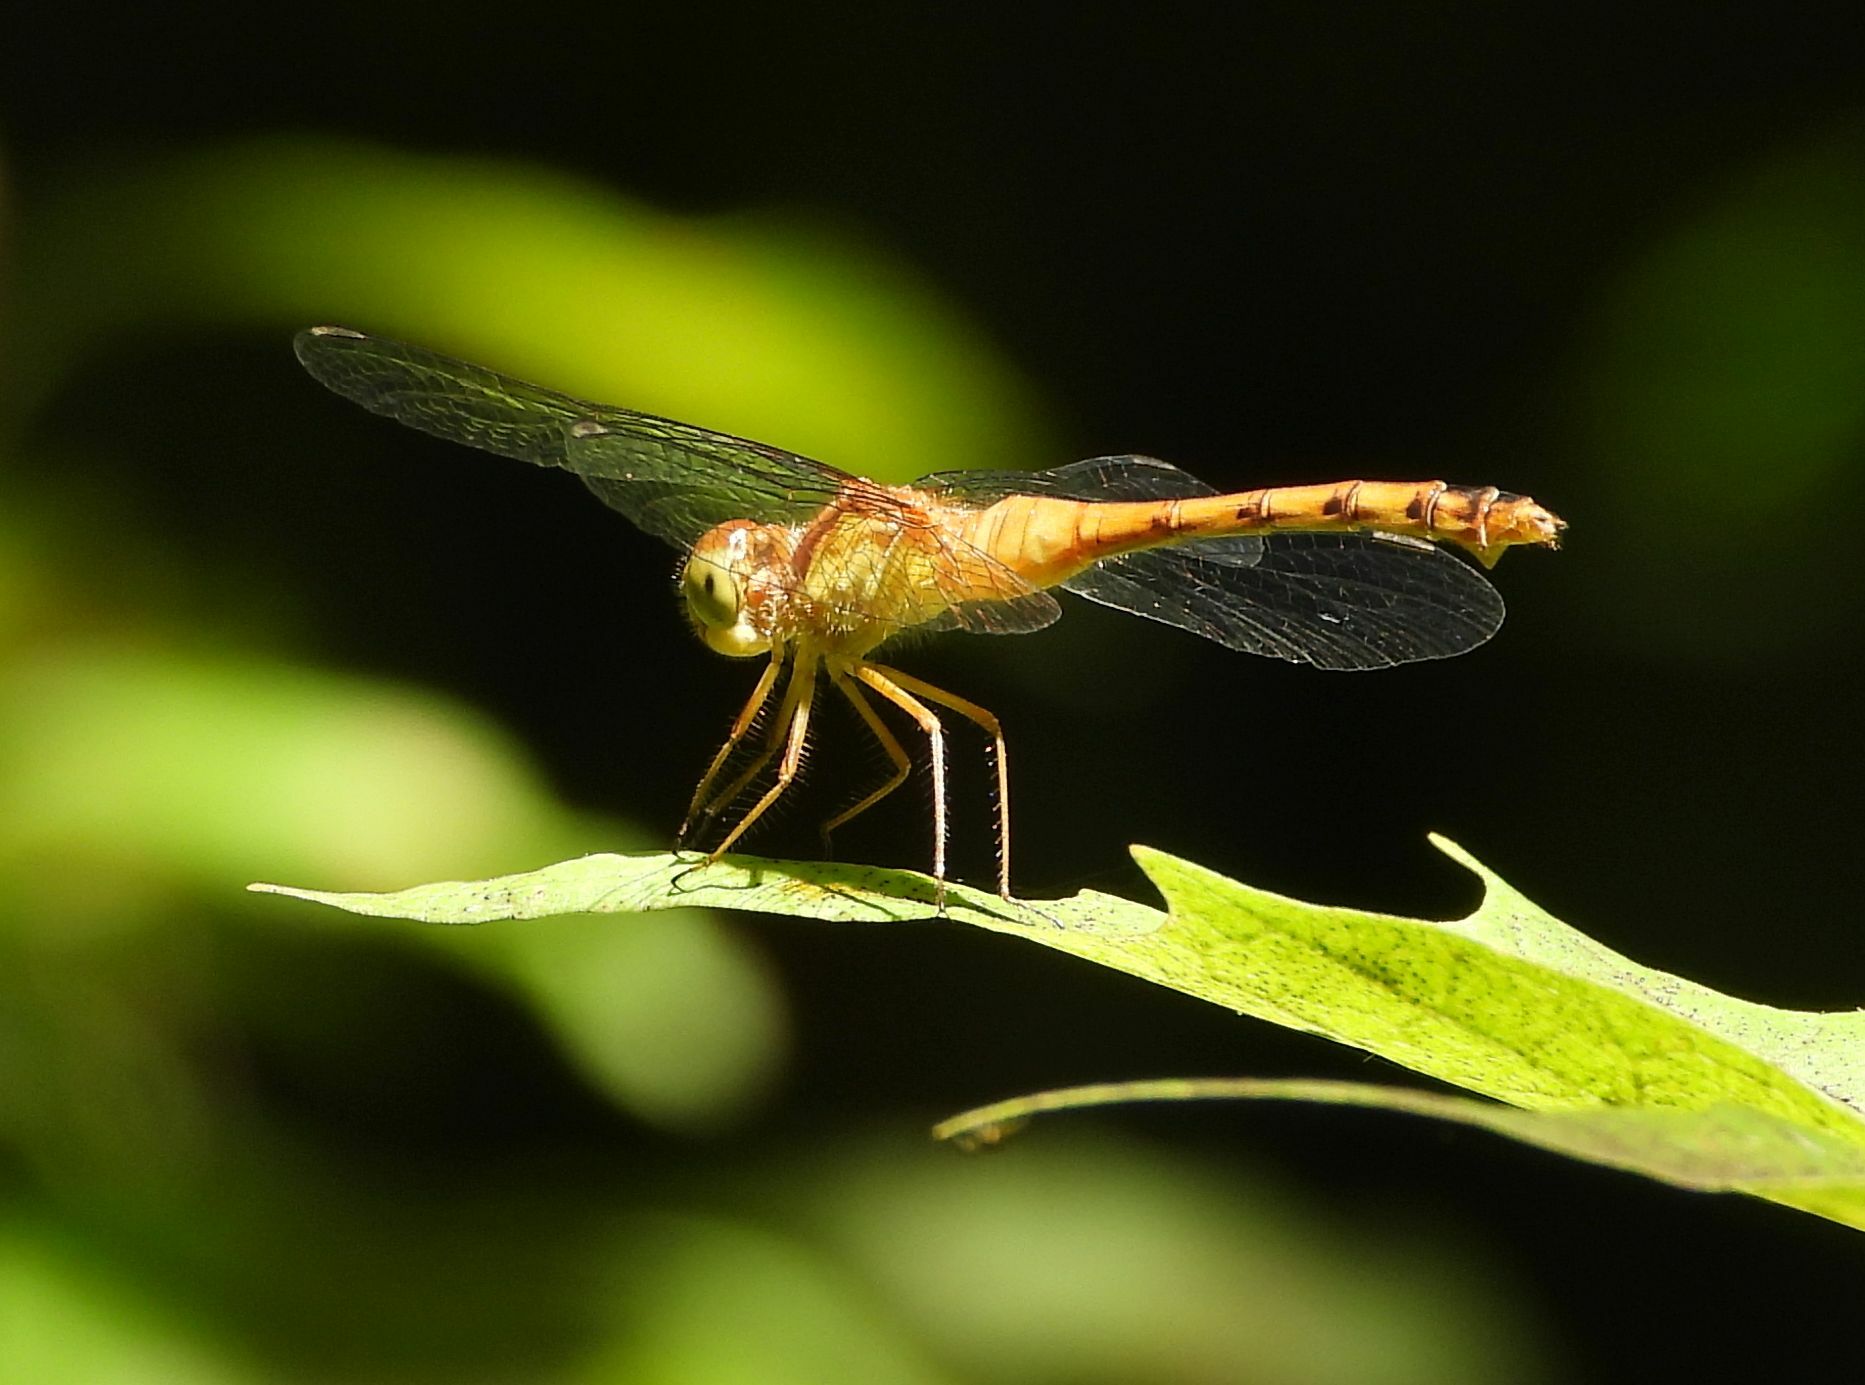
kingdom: Animalia
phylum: Arthropoda
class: Insecta
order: Odonata
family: Libellulidae
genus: Sympetrum
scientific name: Sympetrum vicinum
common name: Autumn meadowhawk
